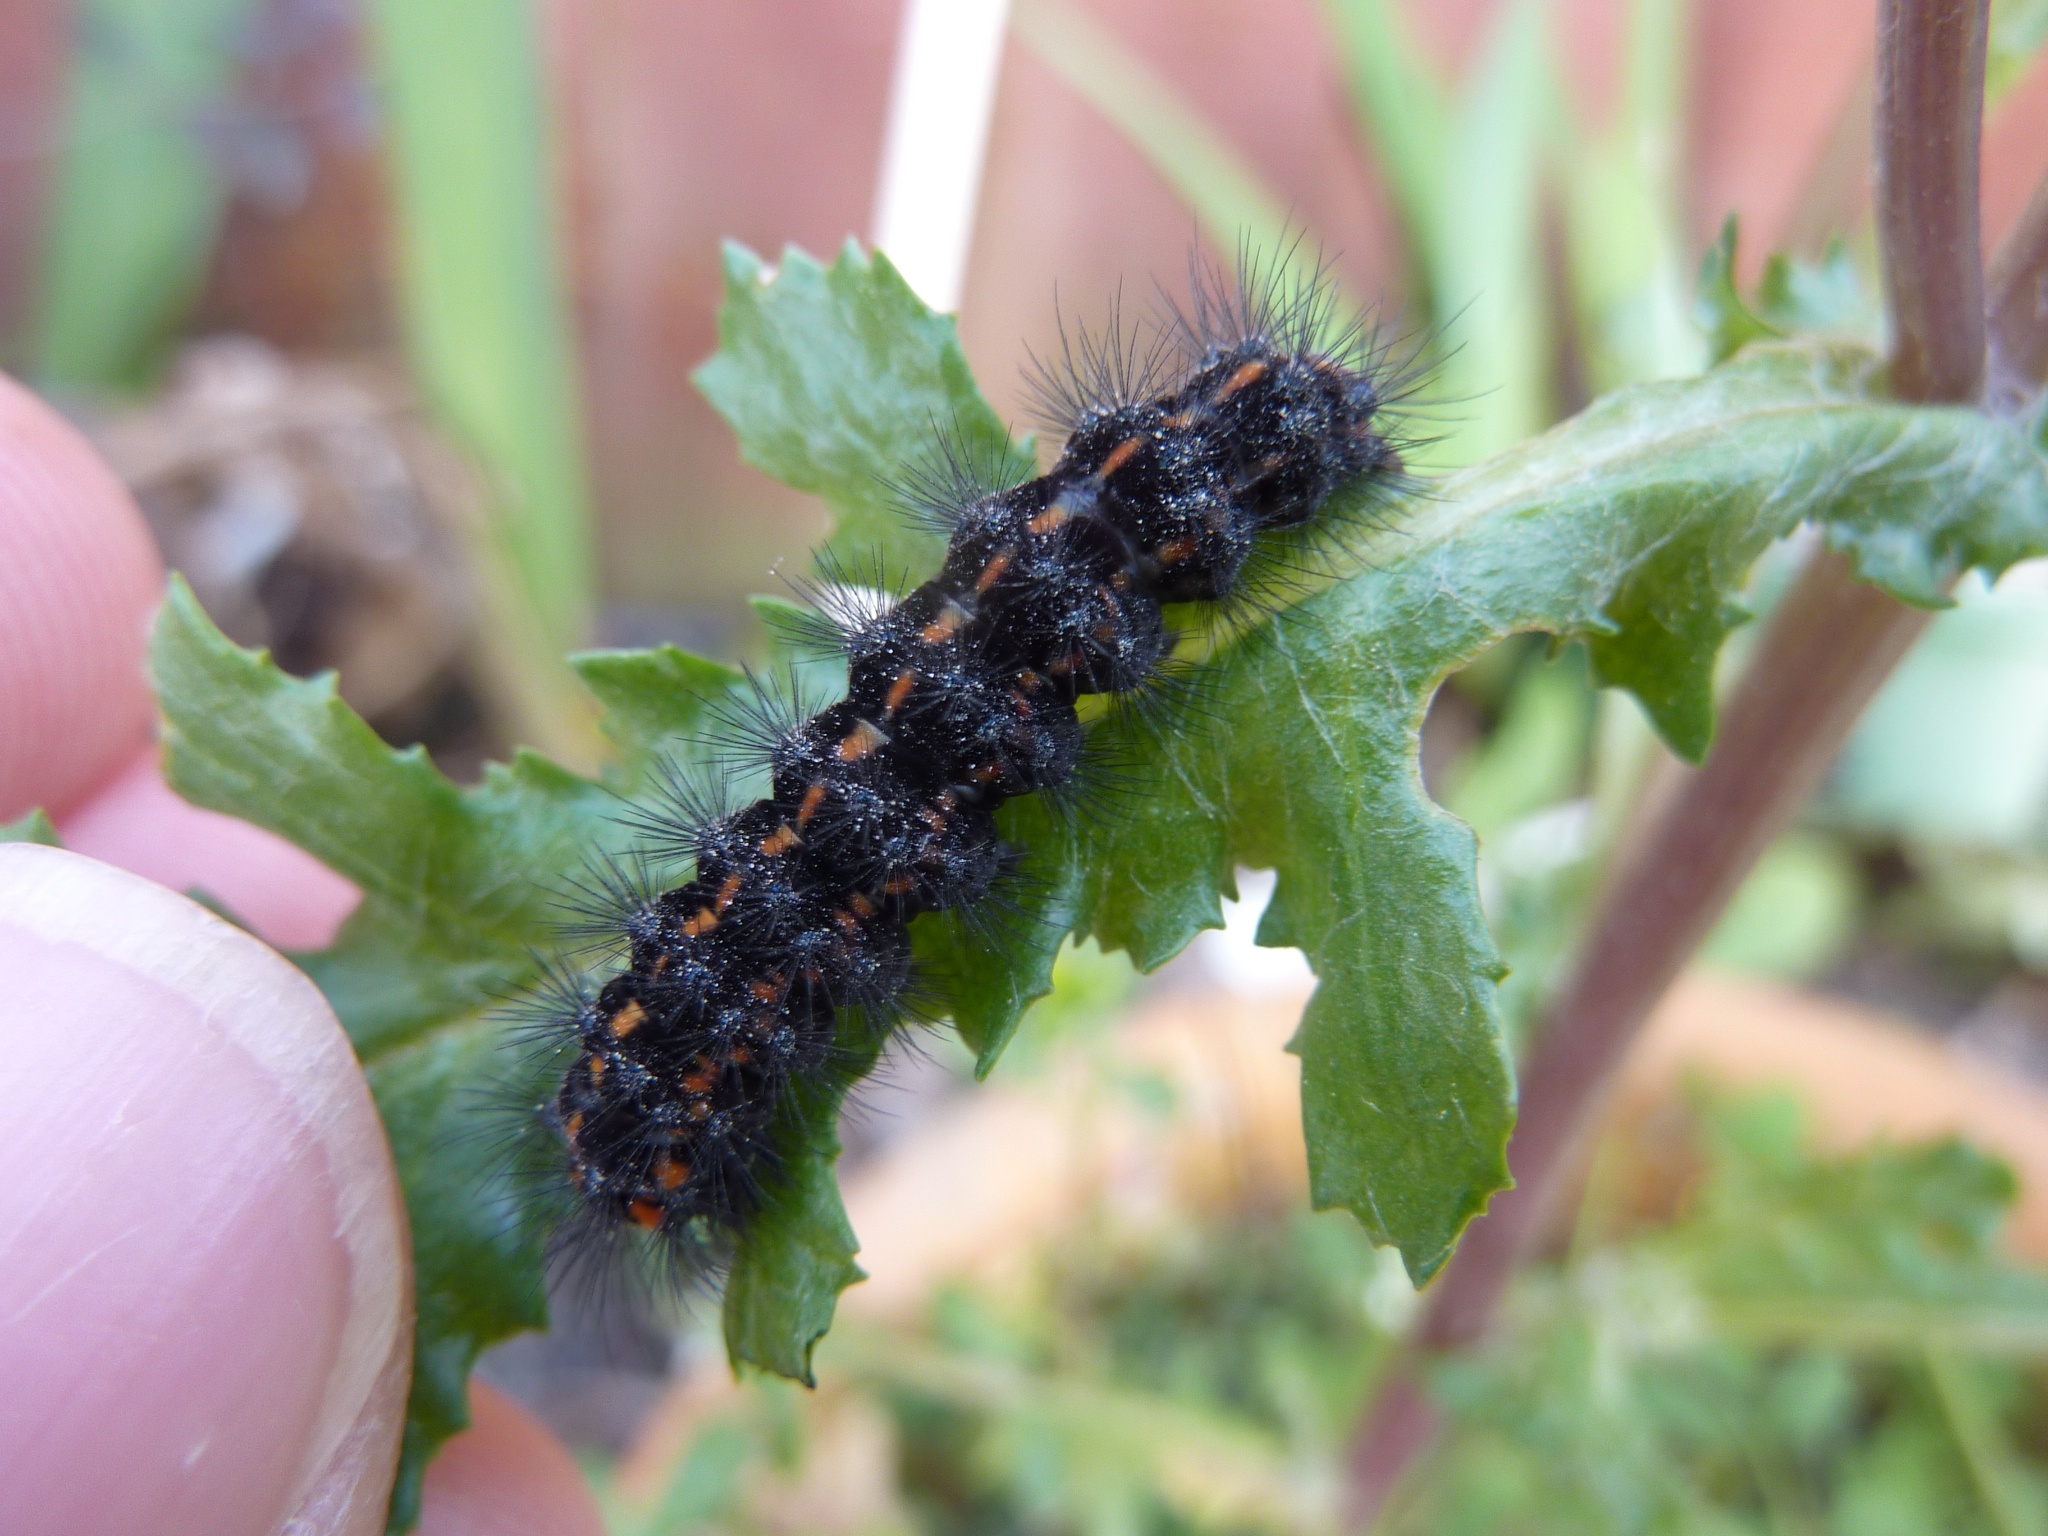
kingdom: Animalia
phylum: Arthropoda
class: Insecta
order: Lepidoptera
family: Erebidae
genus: Nyctemera
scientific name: Nyctemera annulatum
